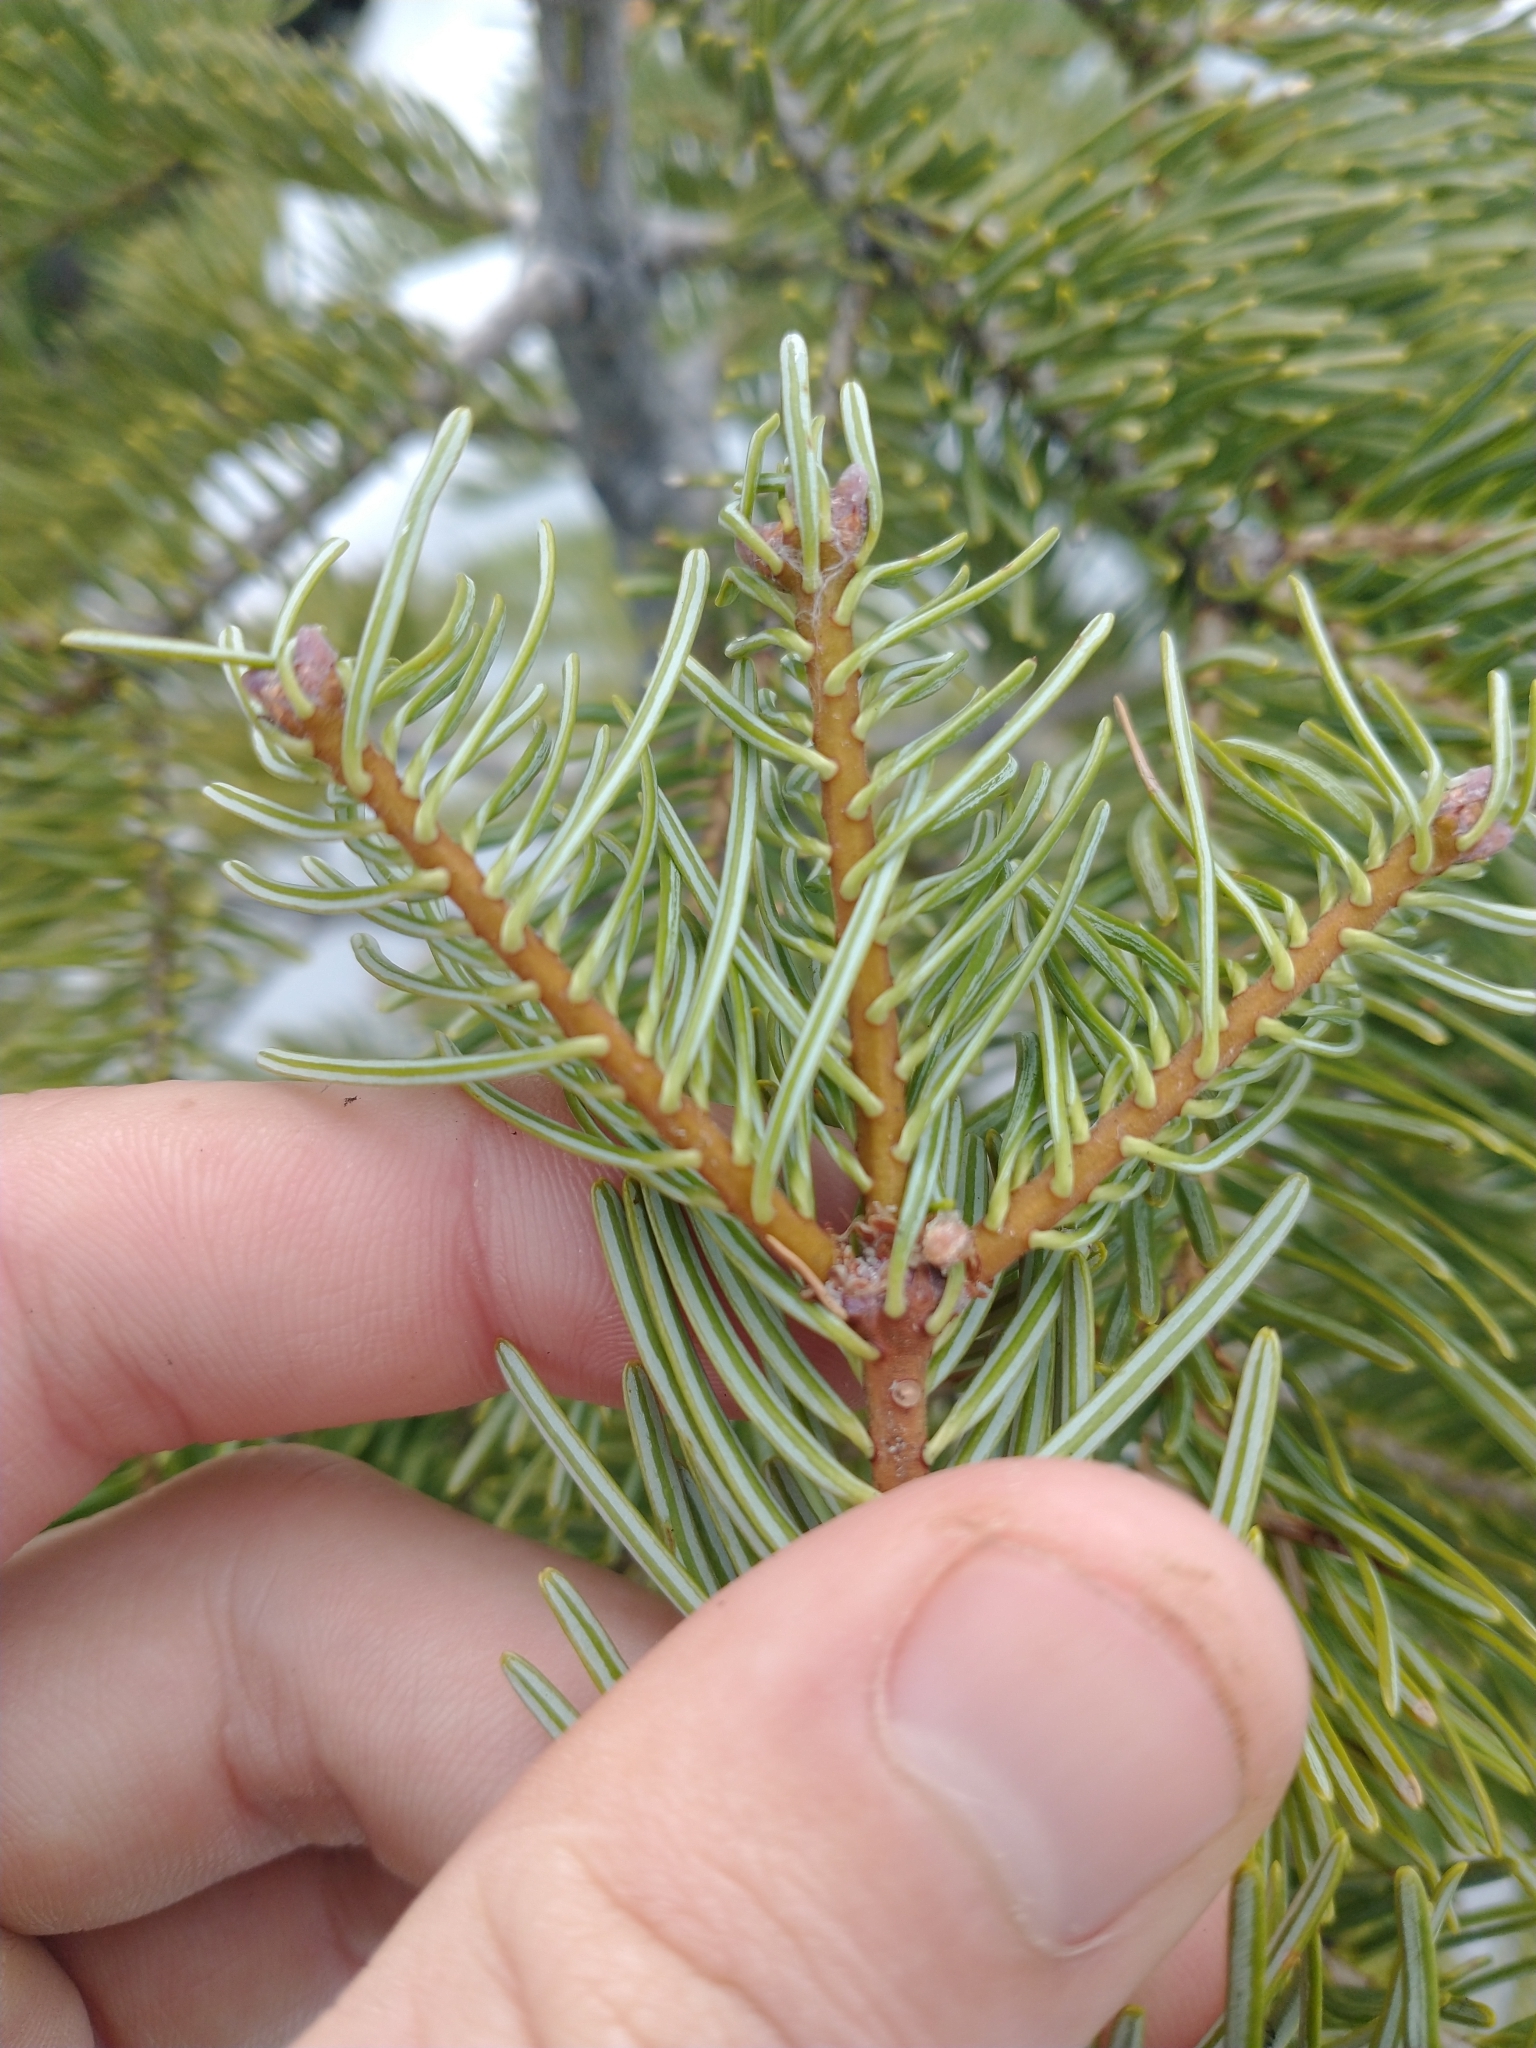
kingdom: Plantae
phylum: Tracheophyta
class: Pinopsida
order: Pinales
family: Pinaceae
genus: Abies
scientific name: Abies concolor
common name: Colorado fir
